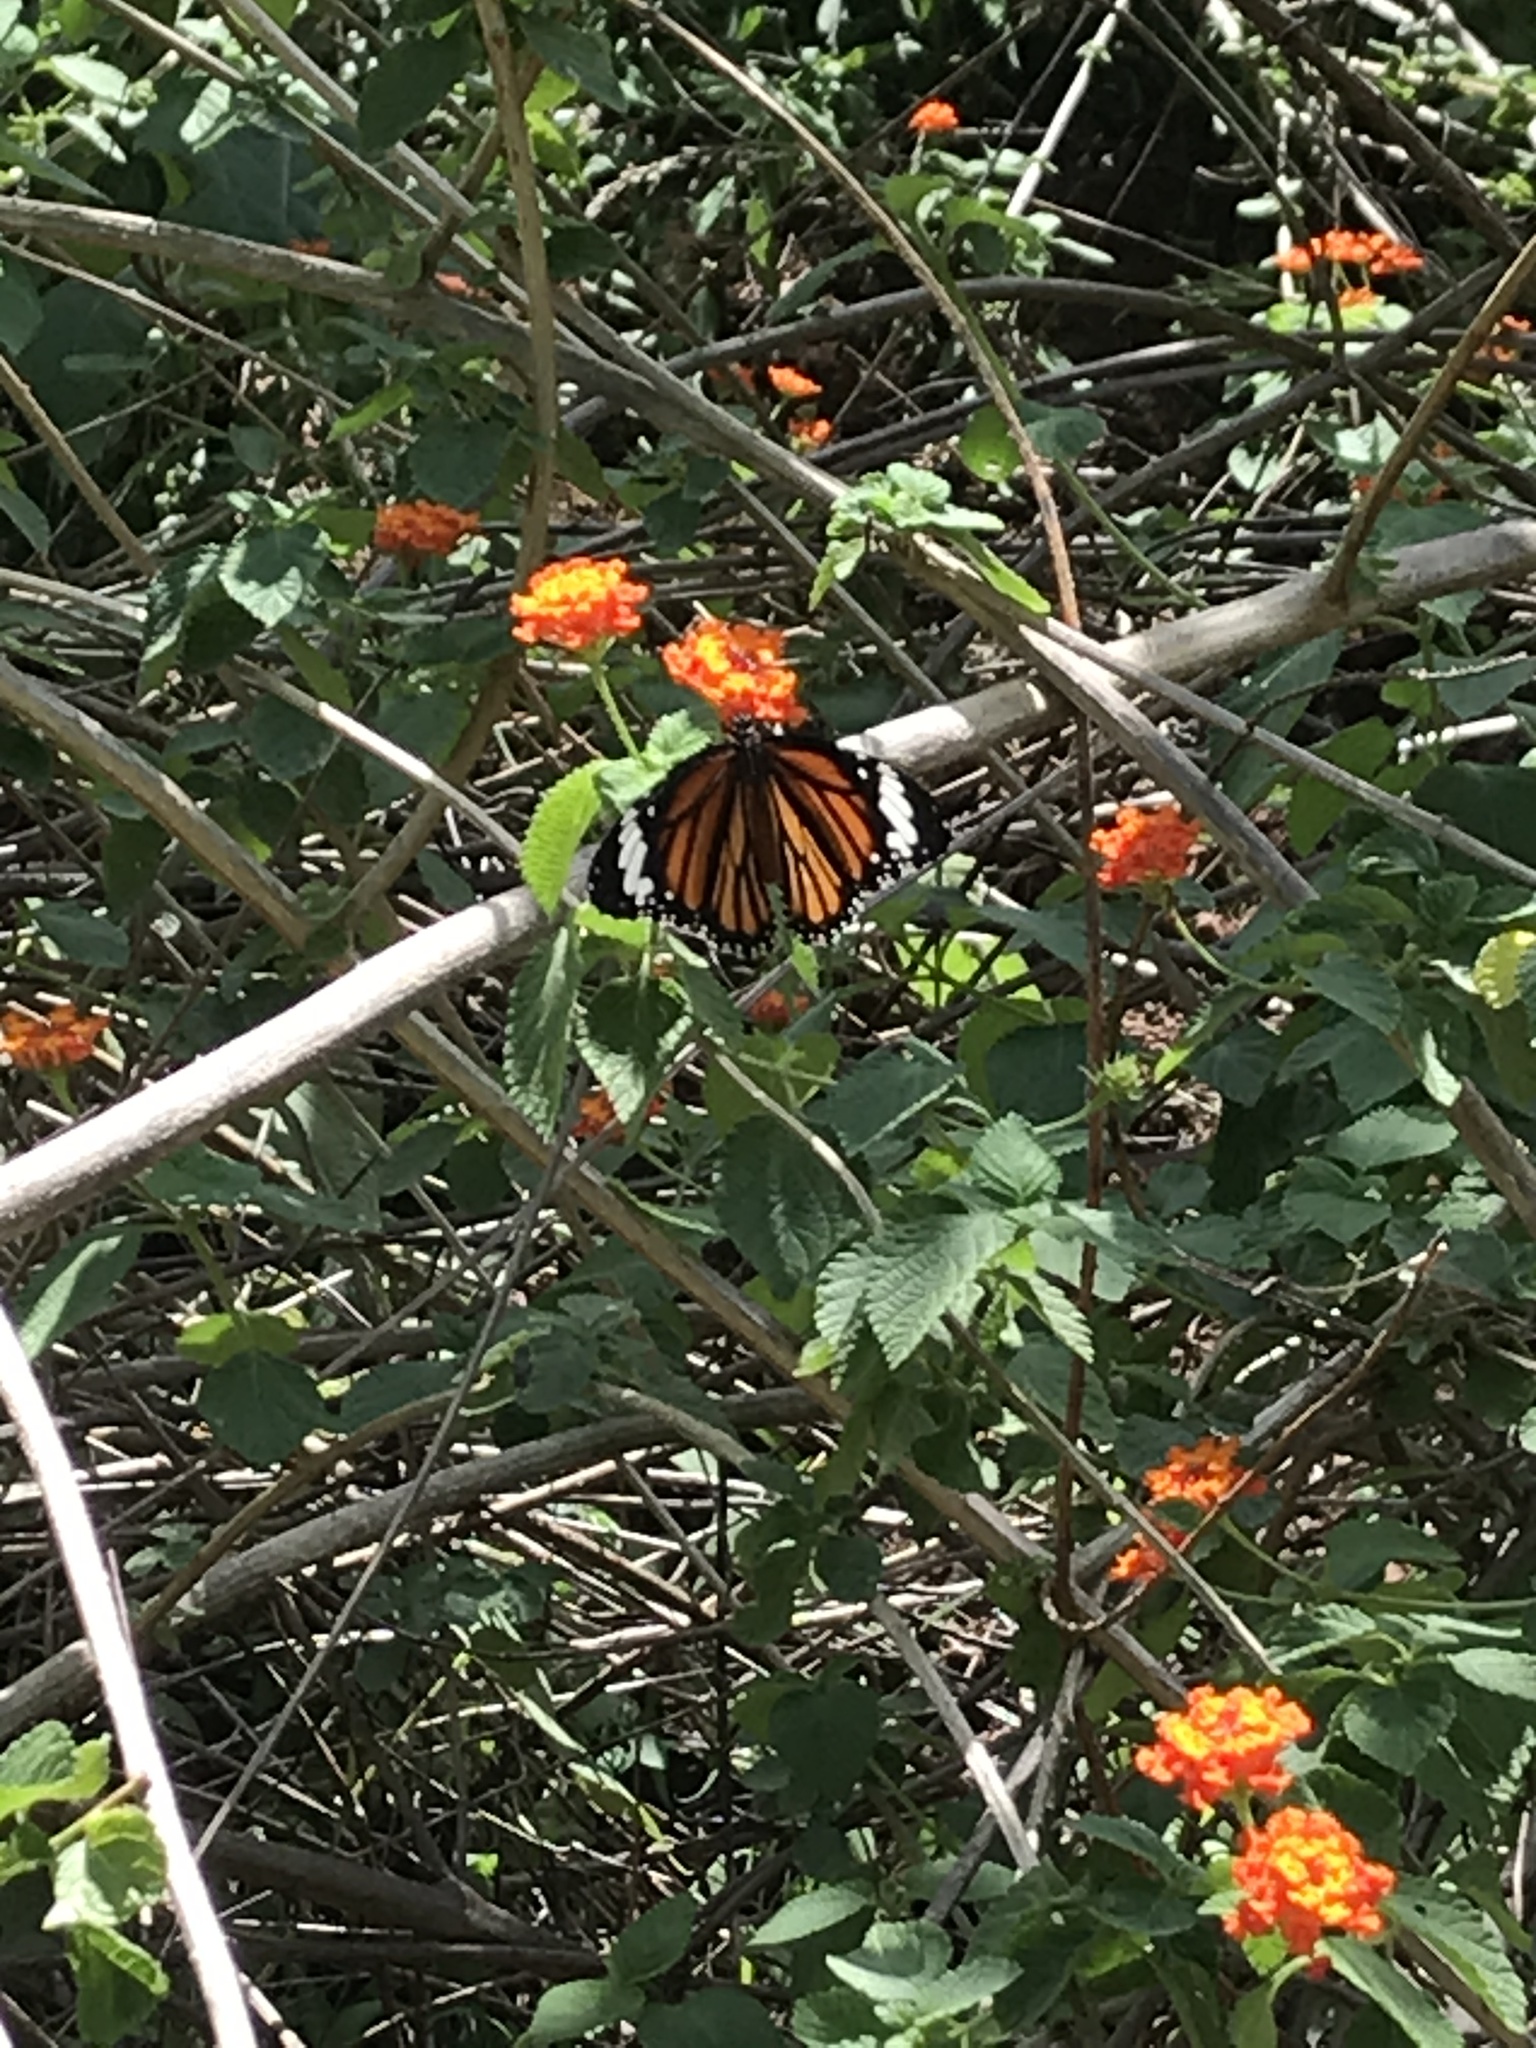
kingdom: Animalia
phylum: Arthropoda
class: Insecta
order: Lepidoptera
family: Nymphalidae
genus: Danaus
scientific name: Danaus genutia
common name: Common tiger butterfly
